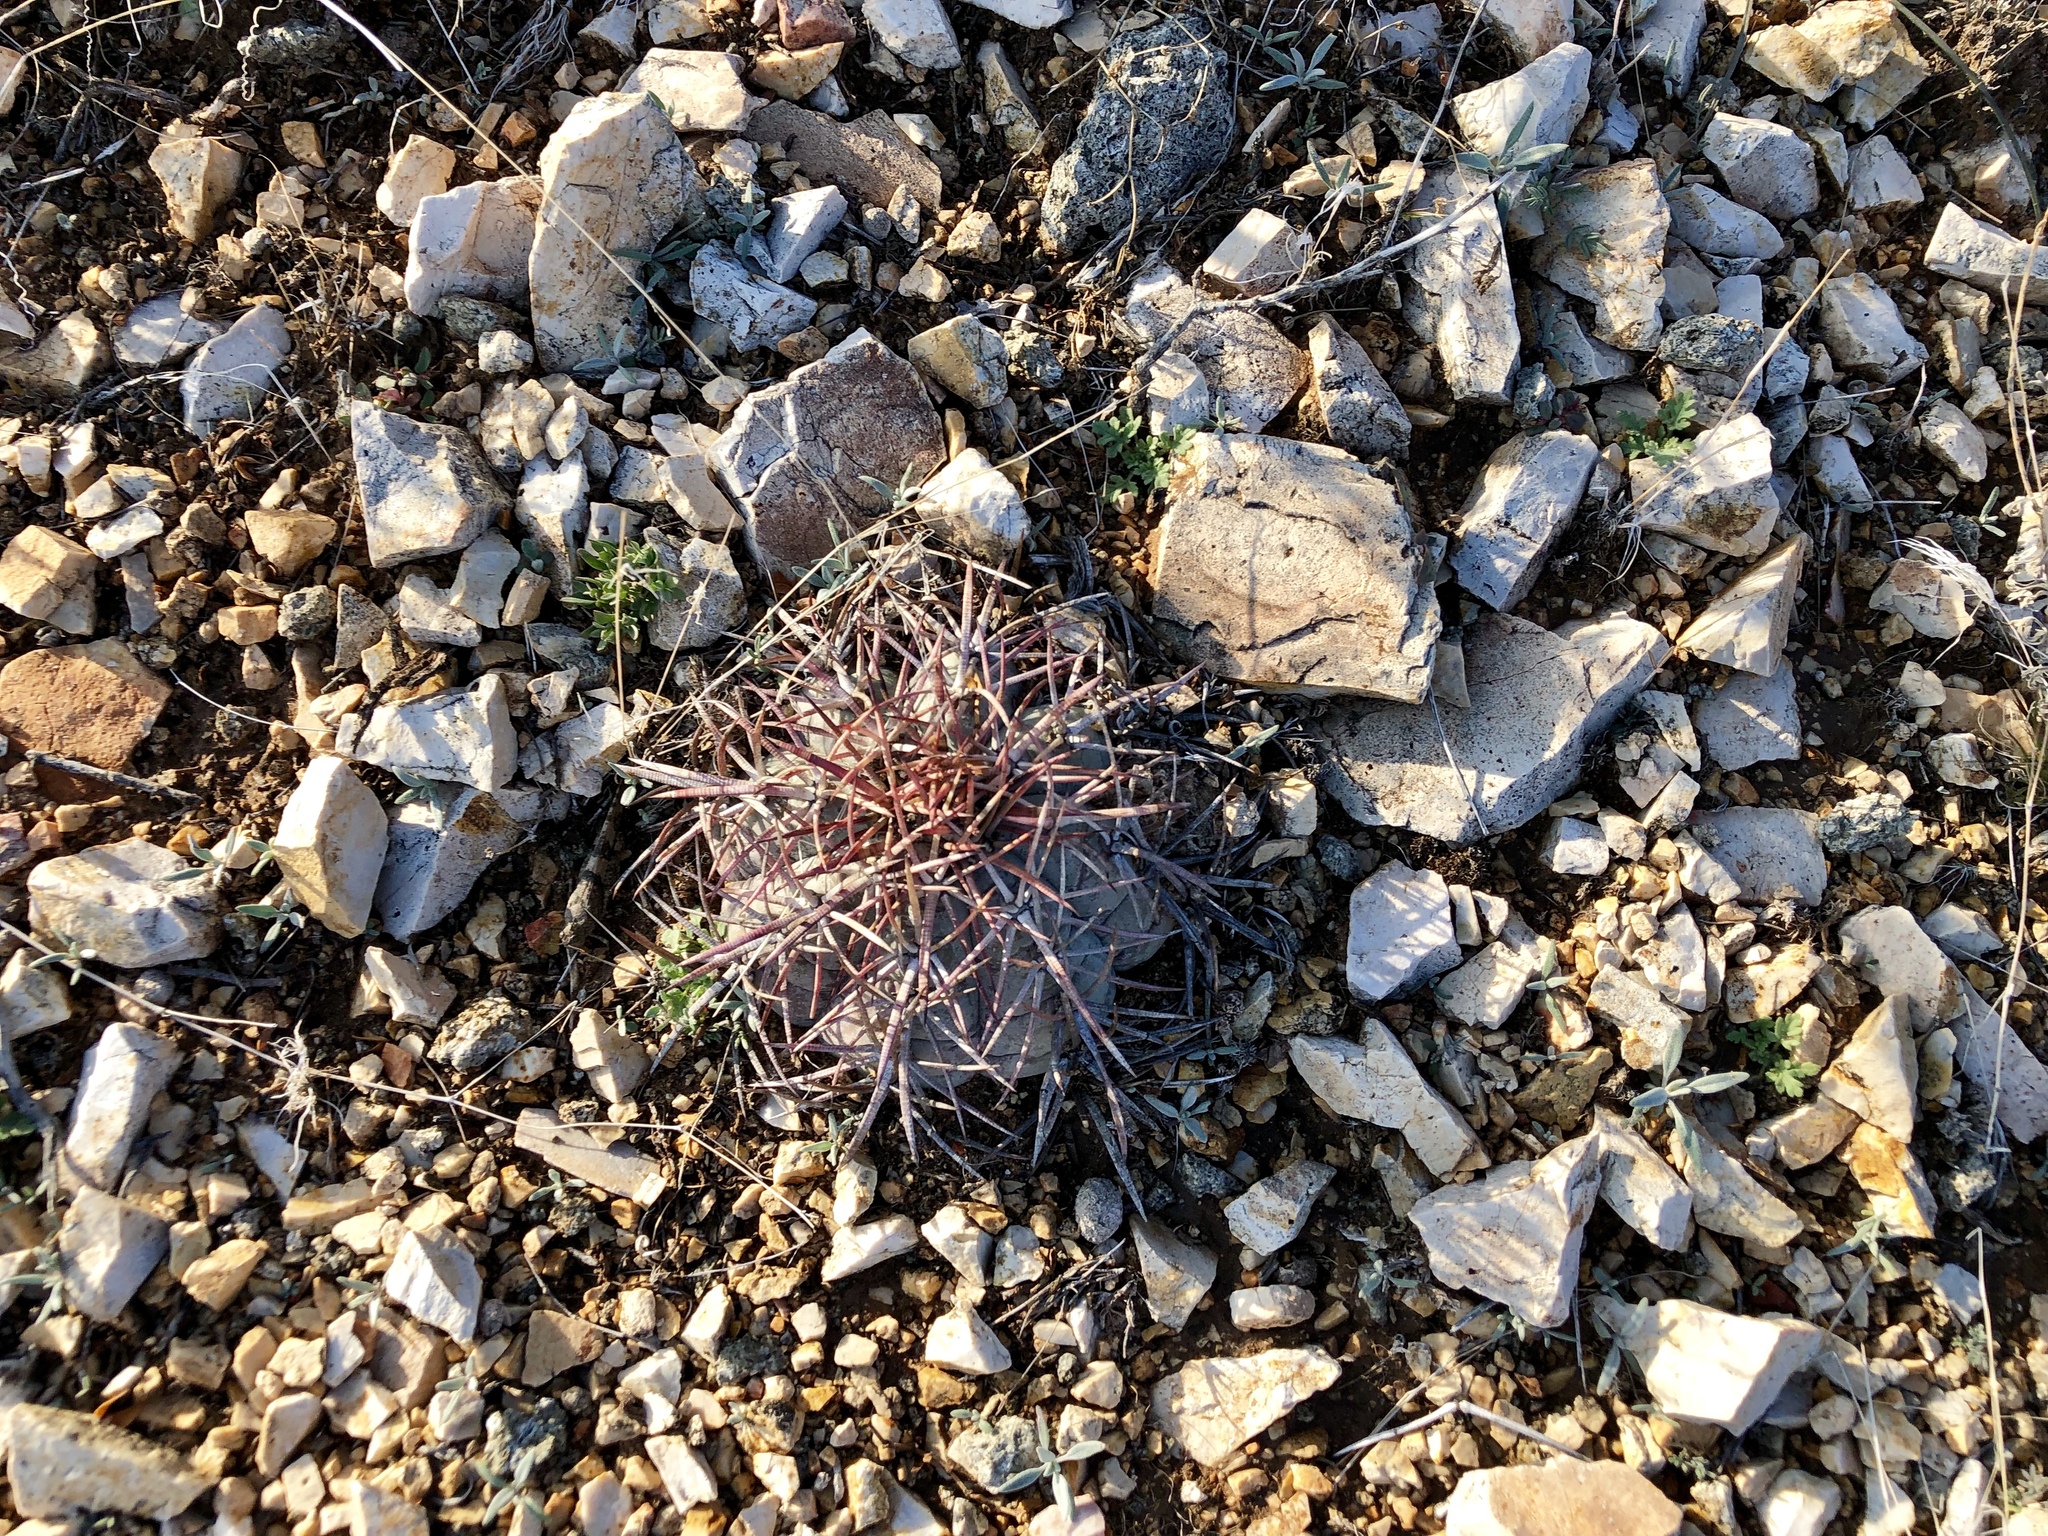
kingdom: Plantae
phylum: Tracheophyta
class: Magnoliopsida
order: Caryophyllales
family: Cactaceae
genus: Echinocactus
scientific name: Echinocactus horizonthalonius
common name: Devilshead
